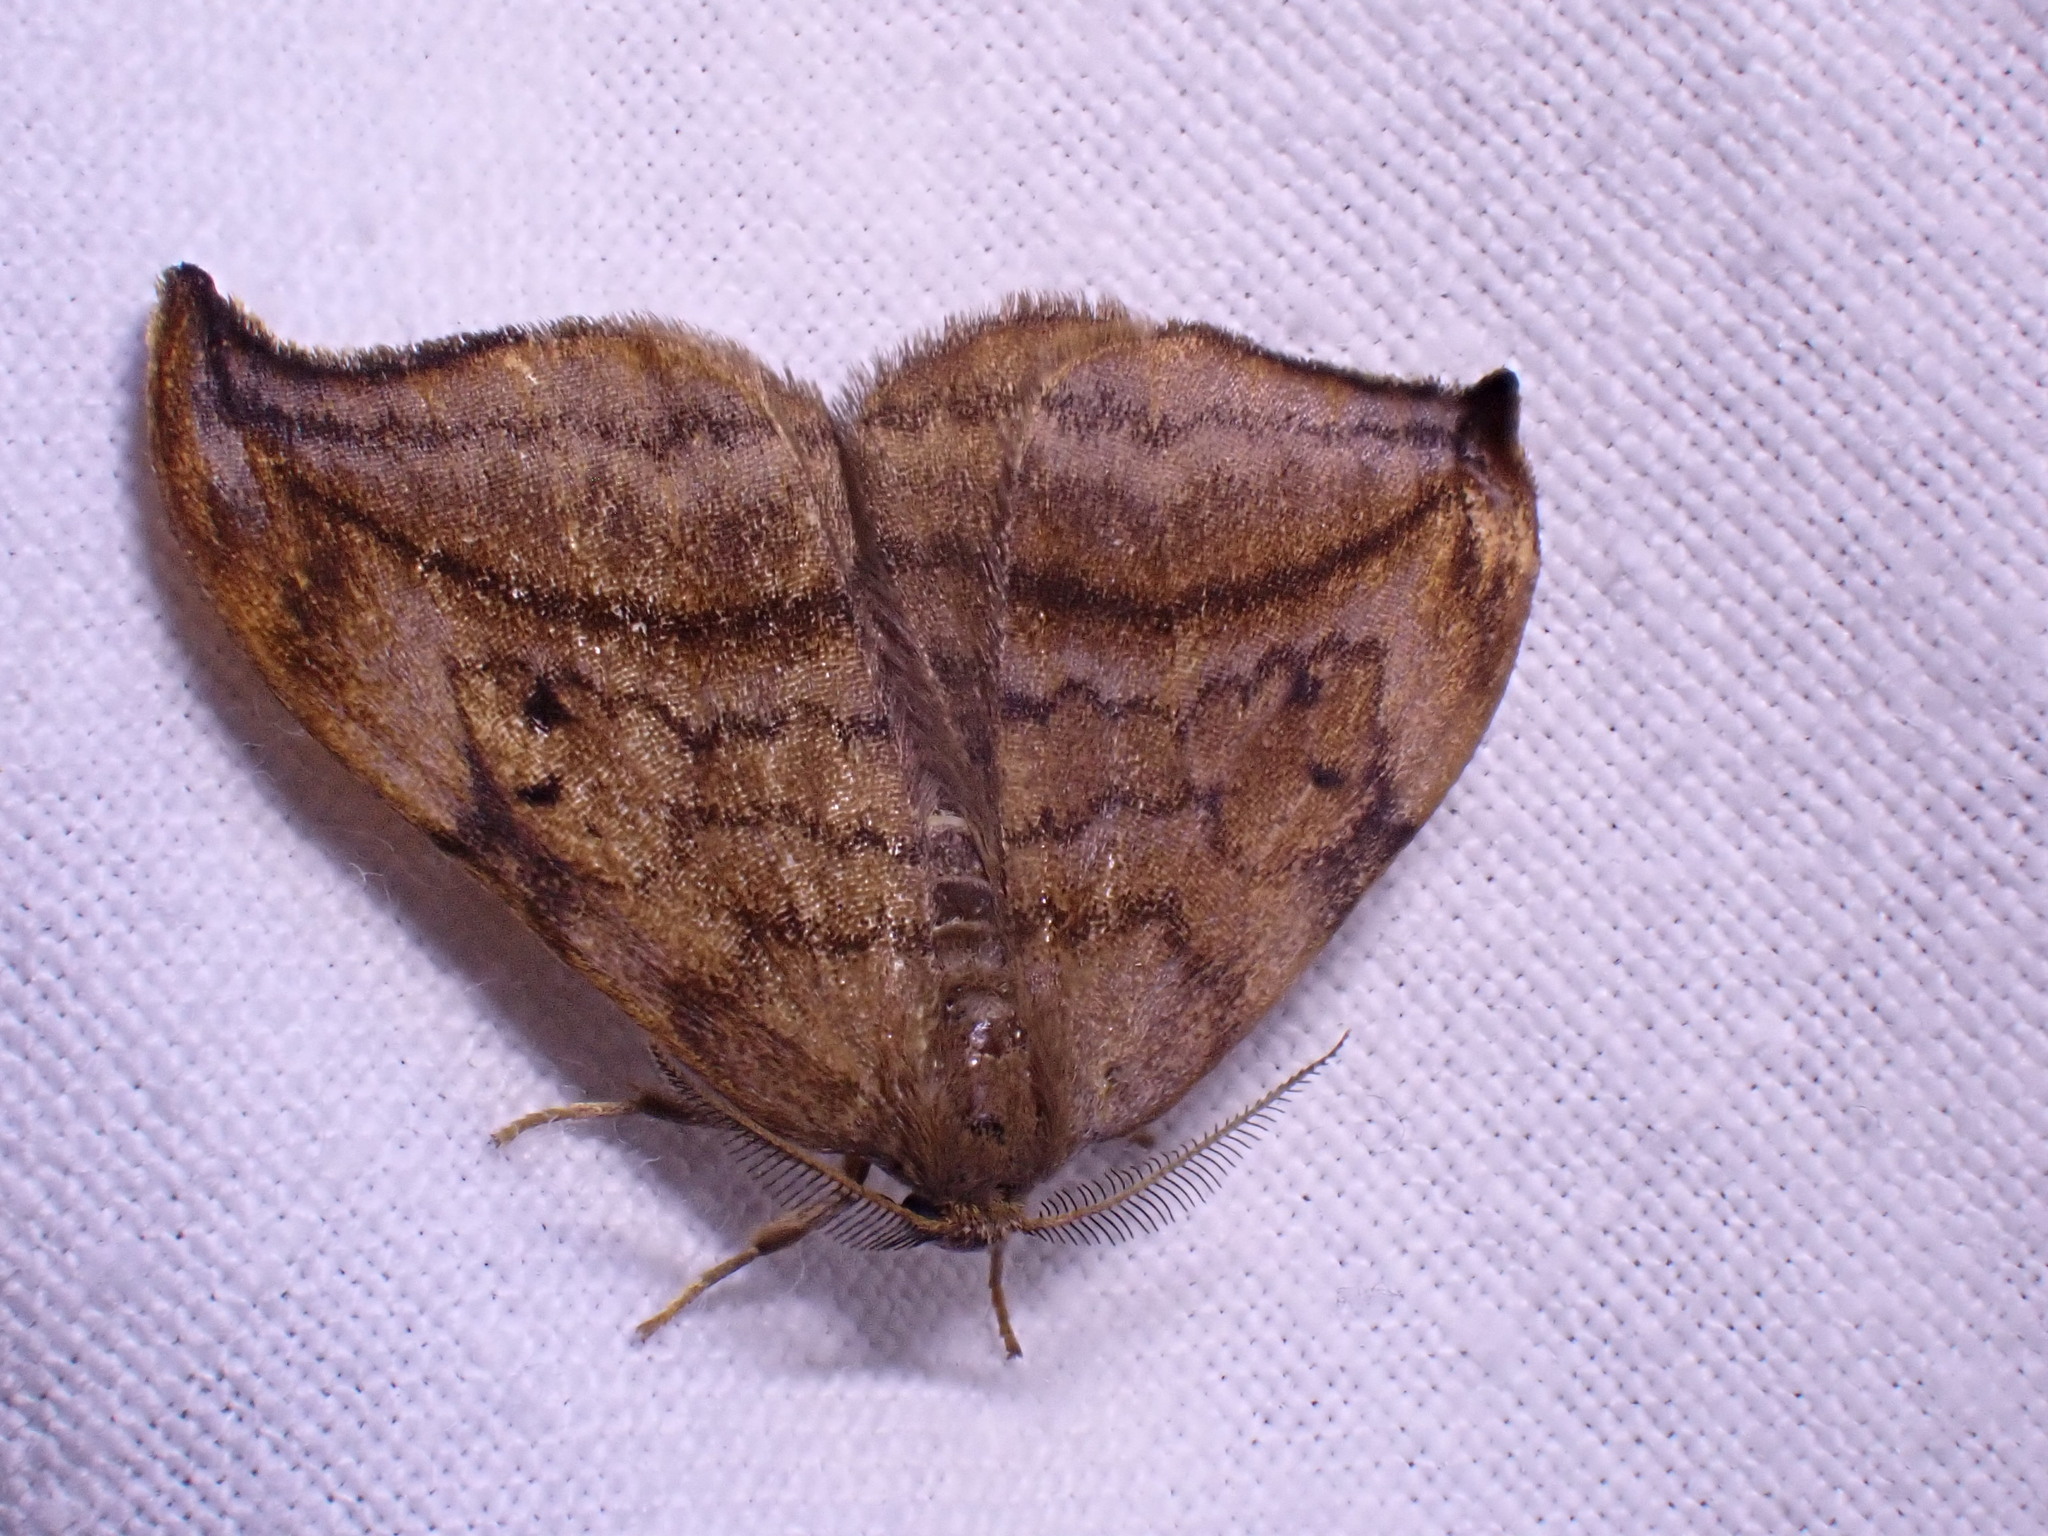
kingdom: Animalia
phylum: Arthropoda
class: Insecta
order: Lepidoptera
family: Drepanidae
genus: Drepana
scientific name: Drepana curvatula
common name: Dusky hook-tip
